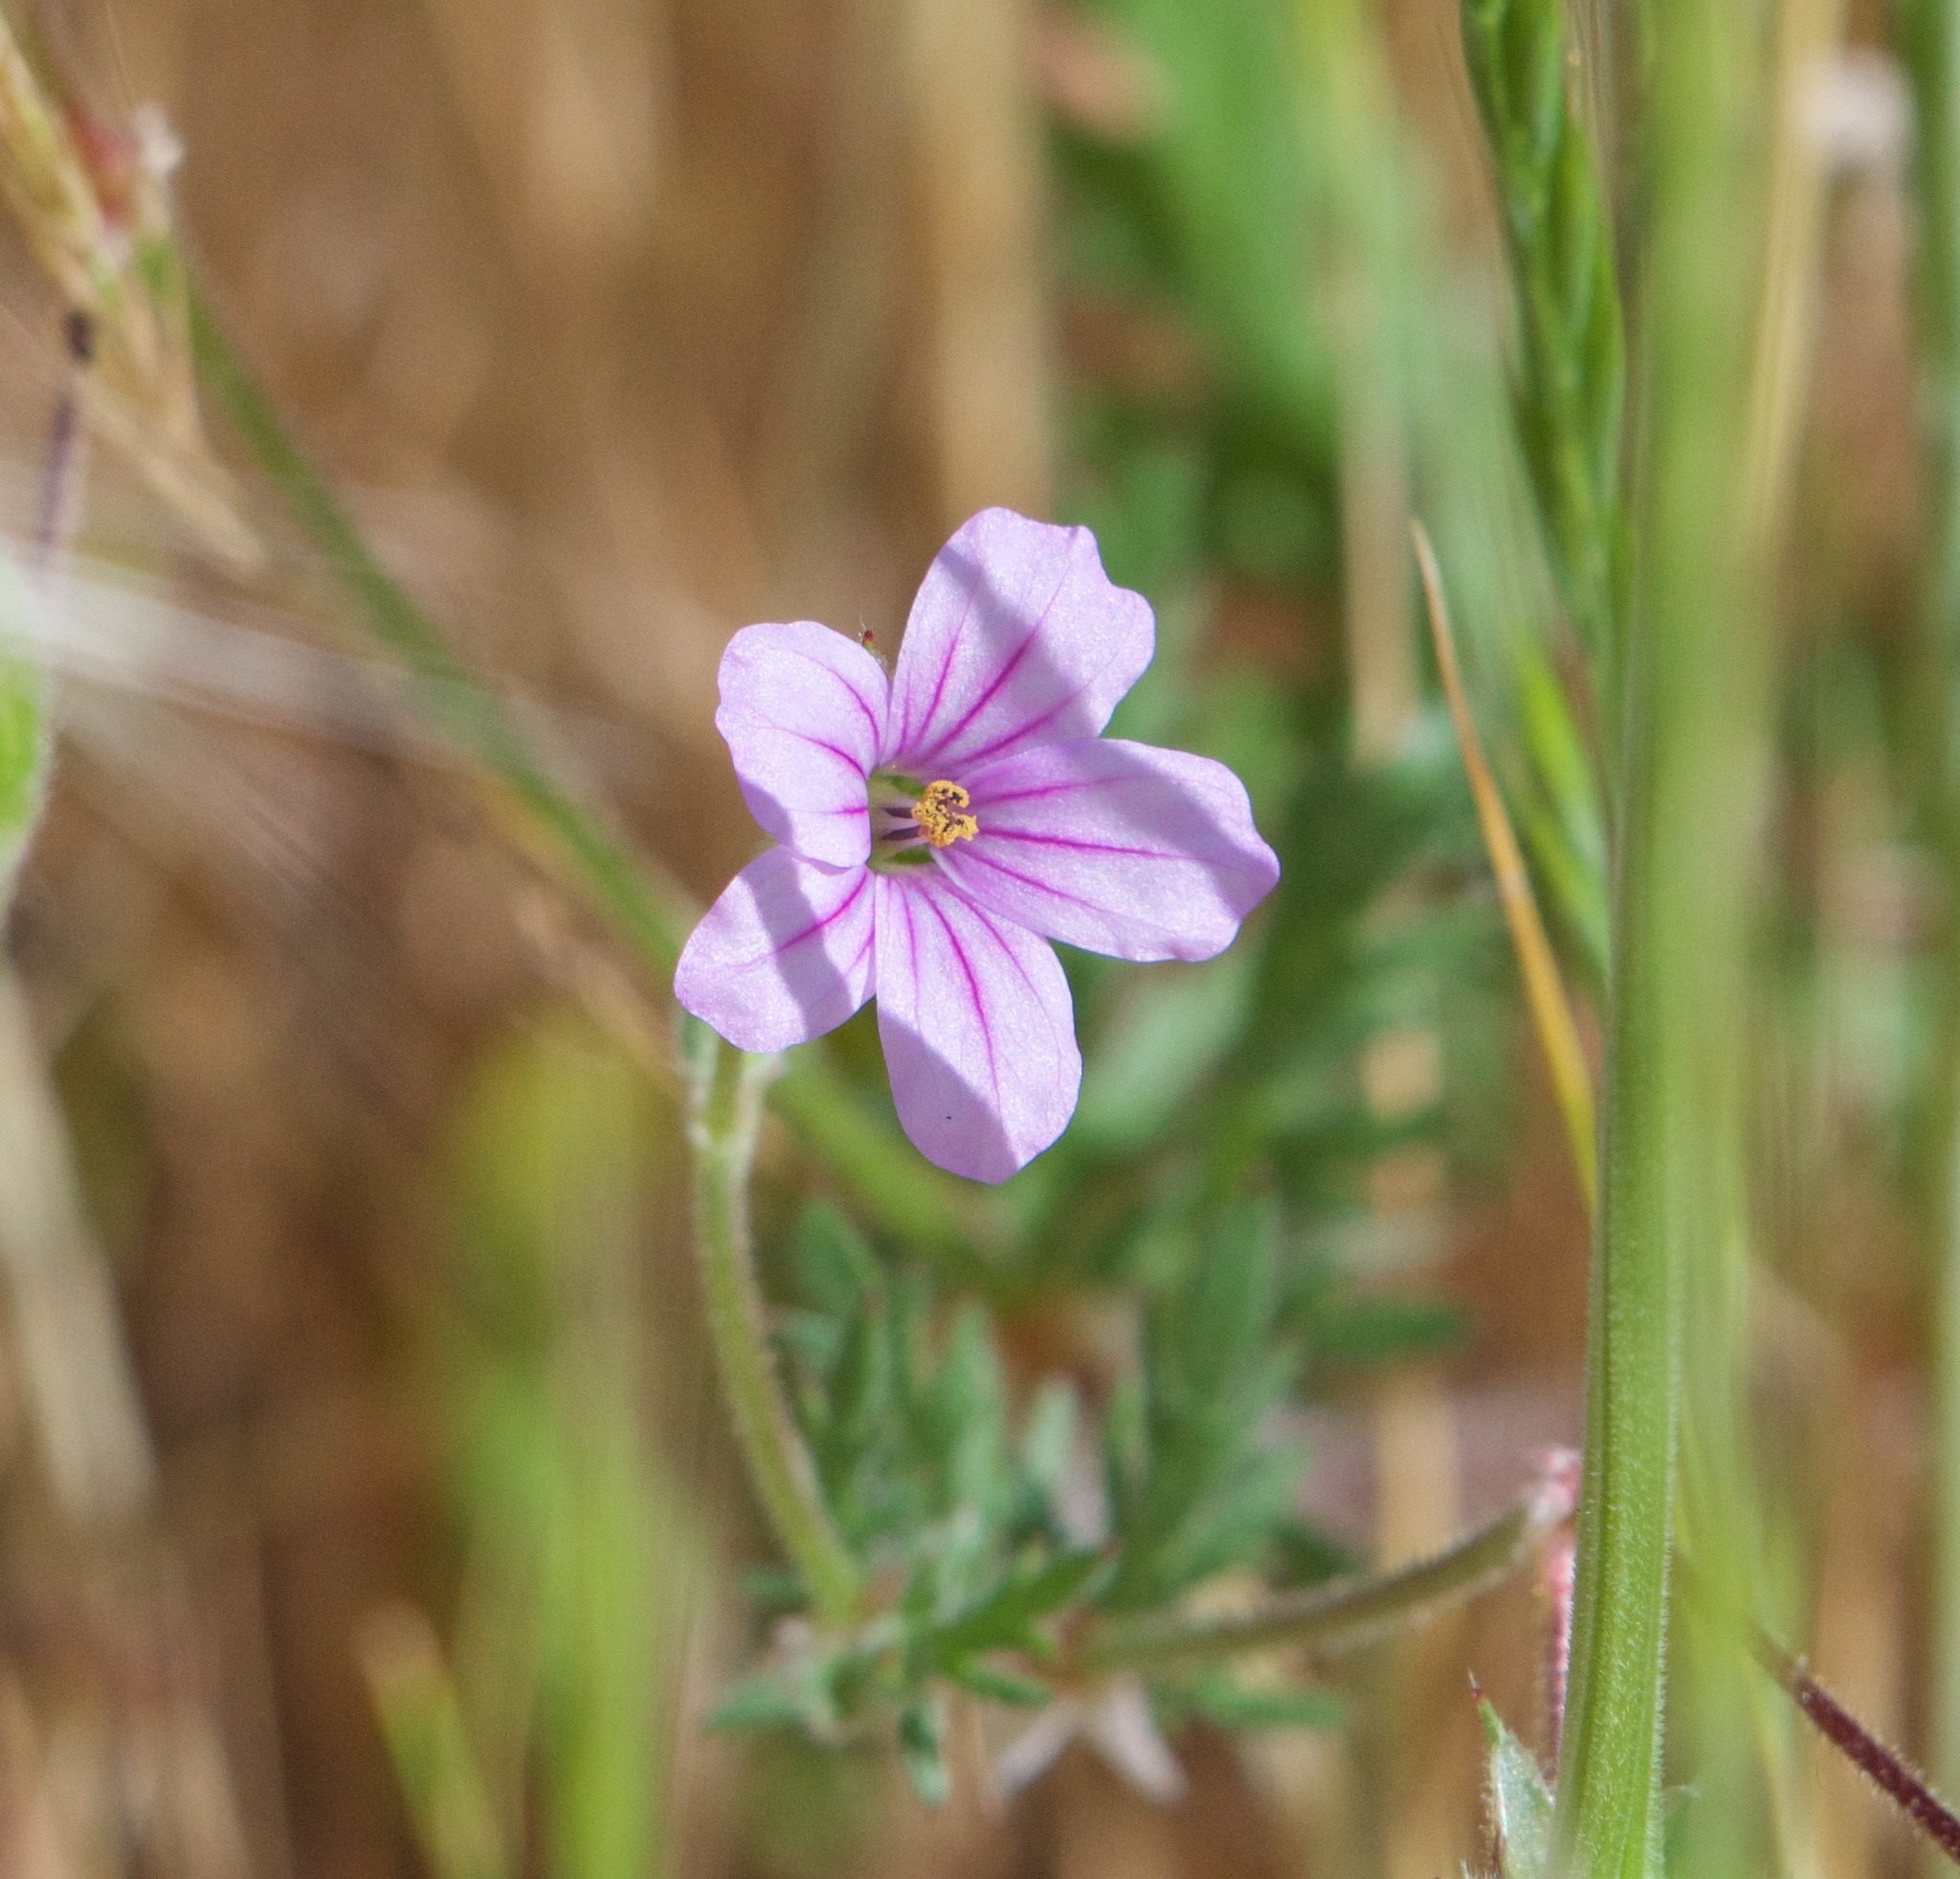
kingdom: Plantae
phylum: Tracheophyta
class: Magnoliopsida
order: Geraniales
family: Geraniaceae
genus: Erodium
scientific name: Erodium botrys
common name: Mediterranean stork's-bill
